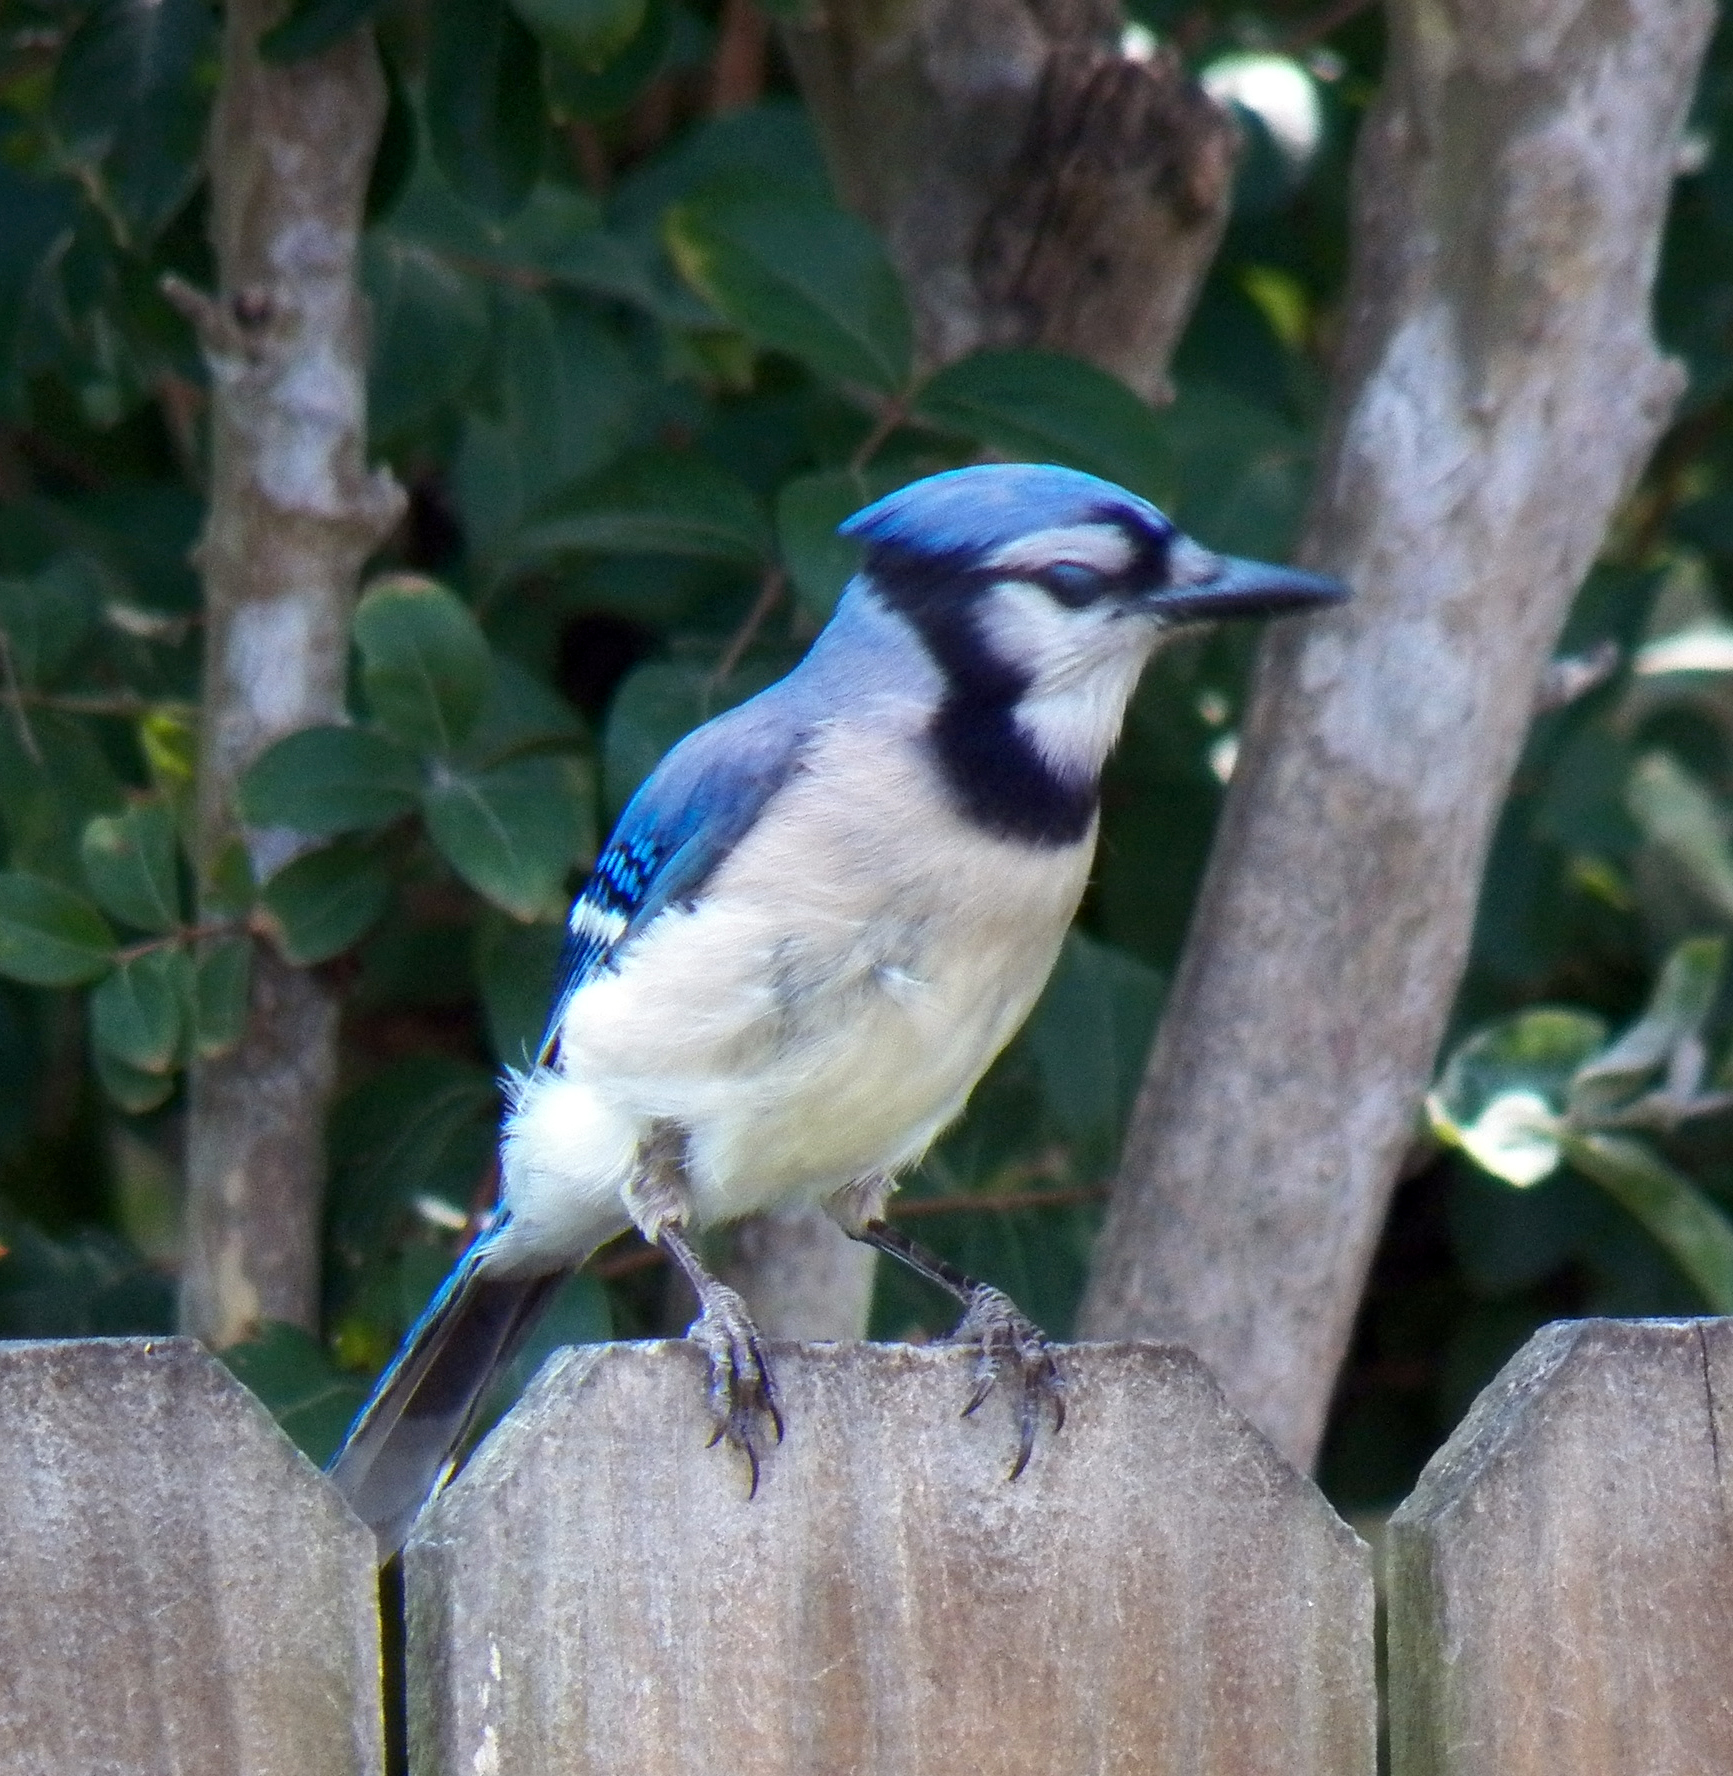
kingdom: Animalia
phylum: Chordata
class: Aves
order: Passeriformes
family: Corvidae
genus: Cyanocitta
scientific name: Cyanocitta cristata
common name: Blue jay
